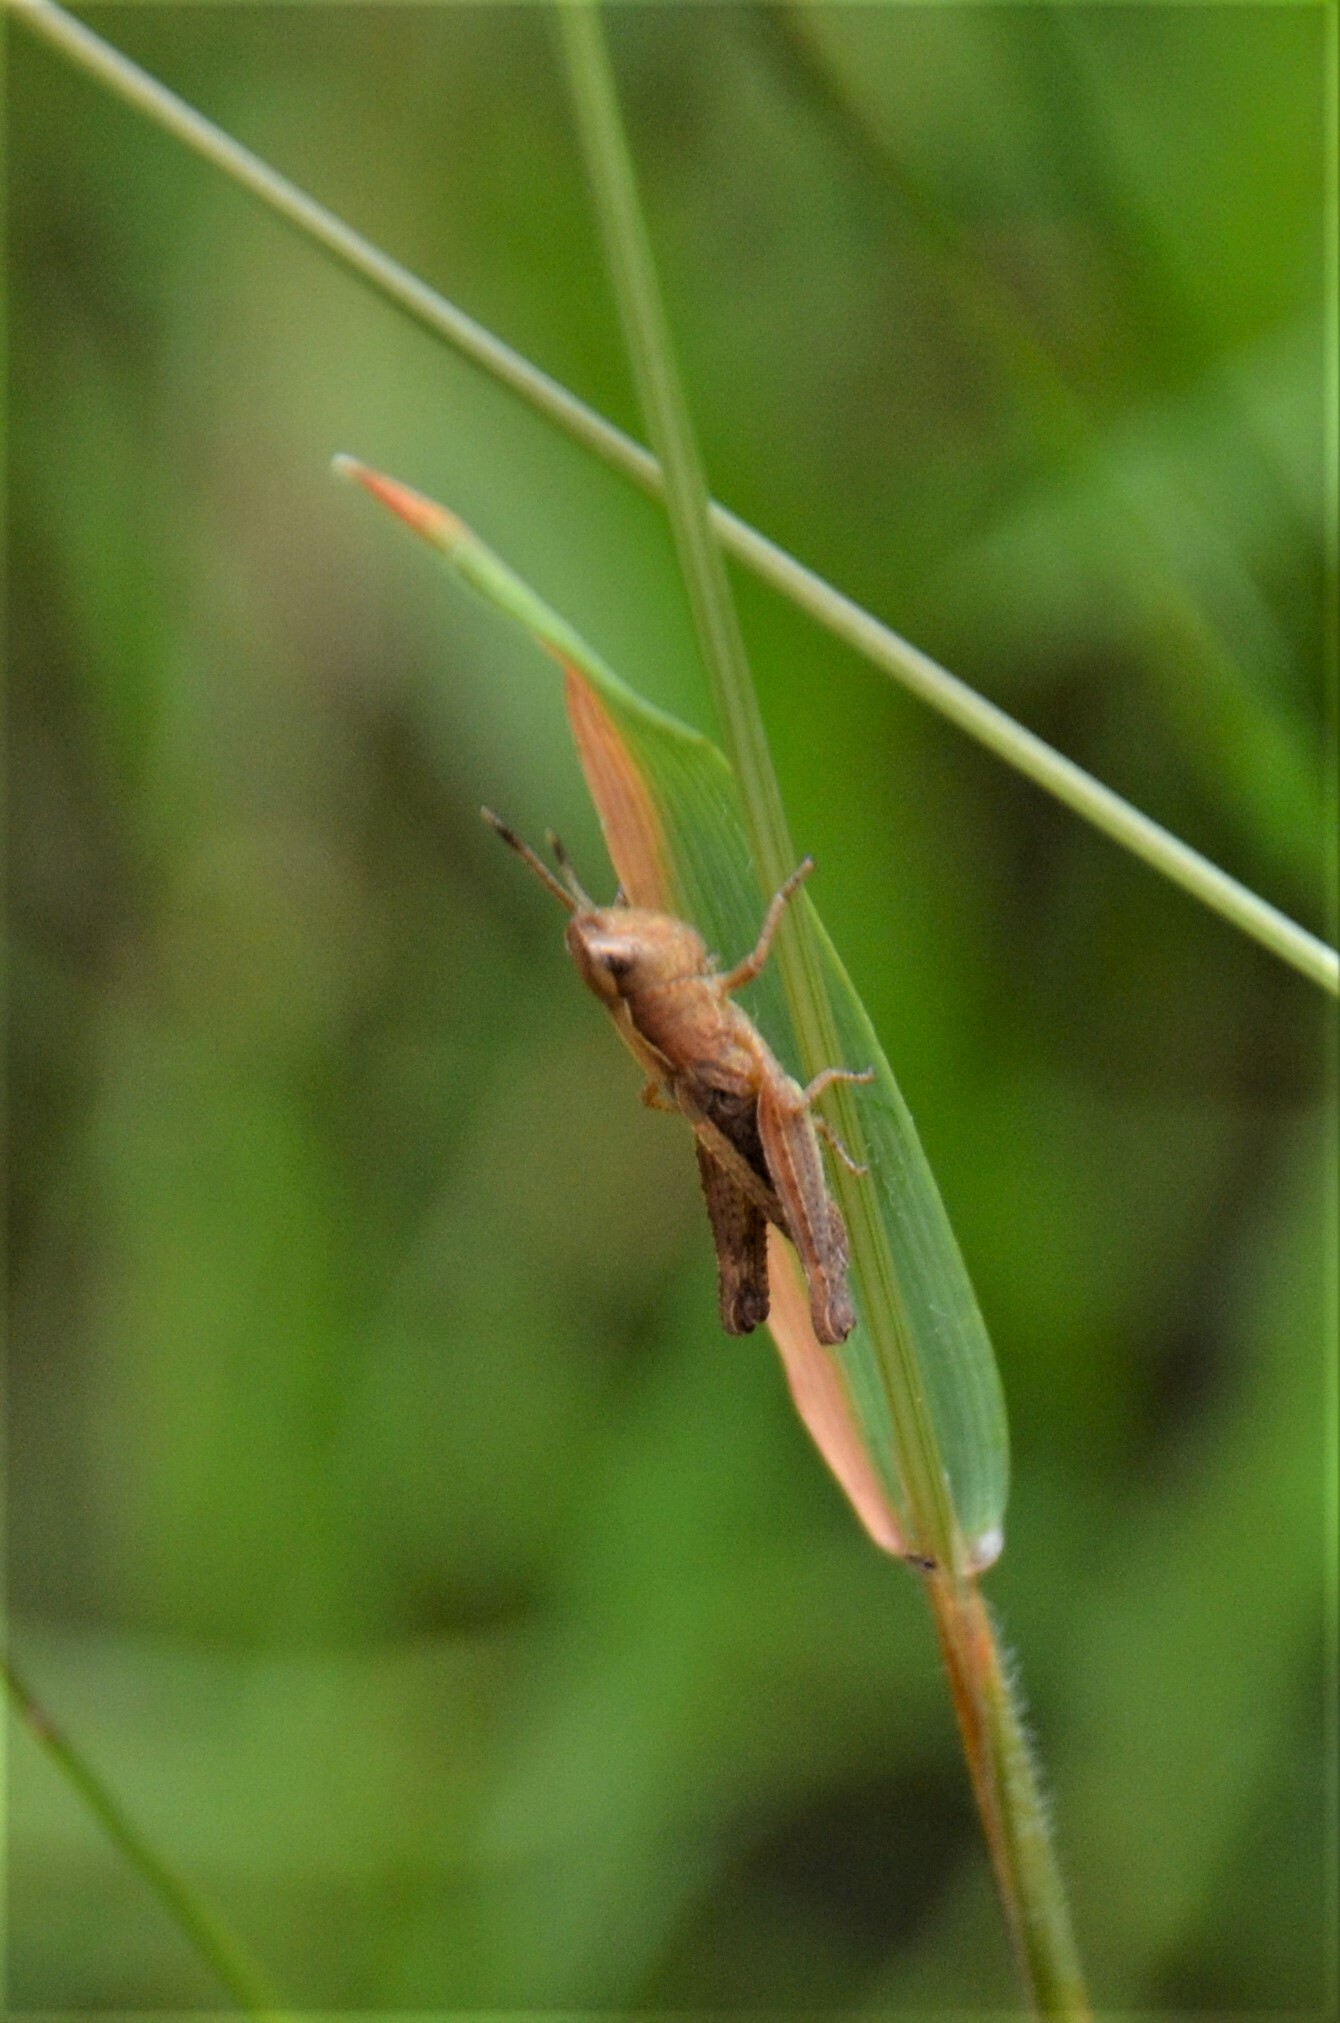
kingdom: Animalia
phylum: Arthropoda
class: Insecta
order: Orthoptera
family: Acrididae
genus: Gomphocerippus
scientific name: Gomphocerippus rufus
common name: Rufous grasshopper
